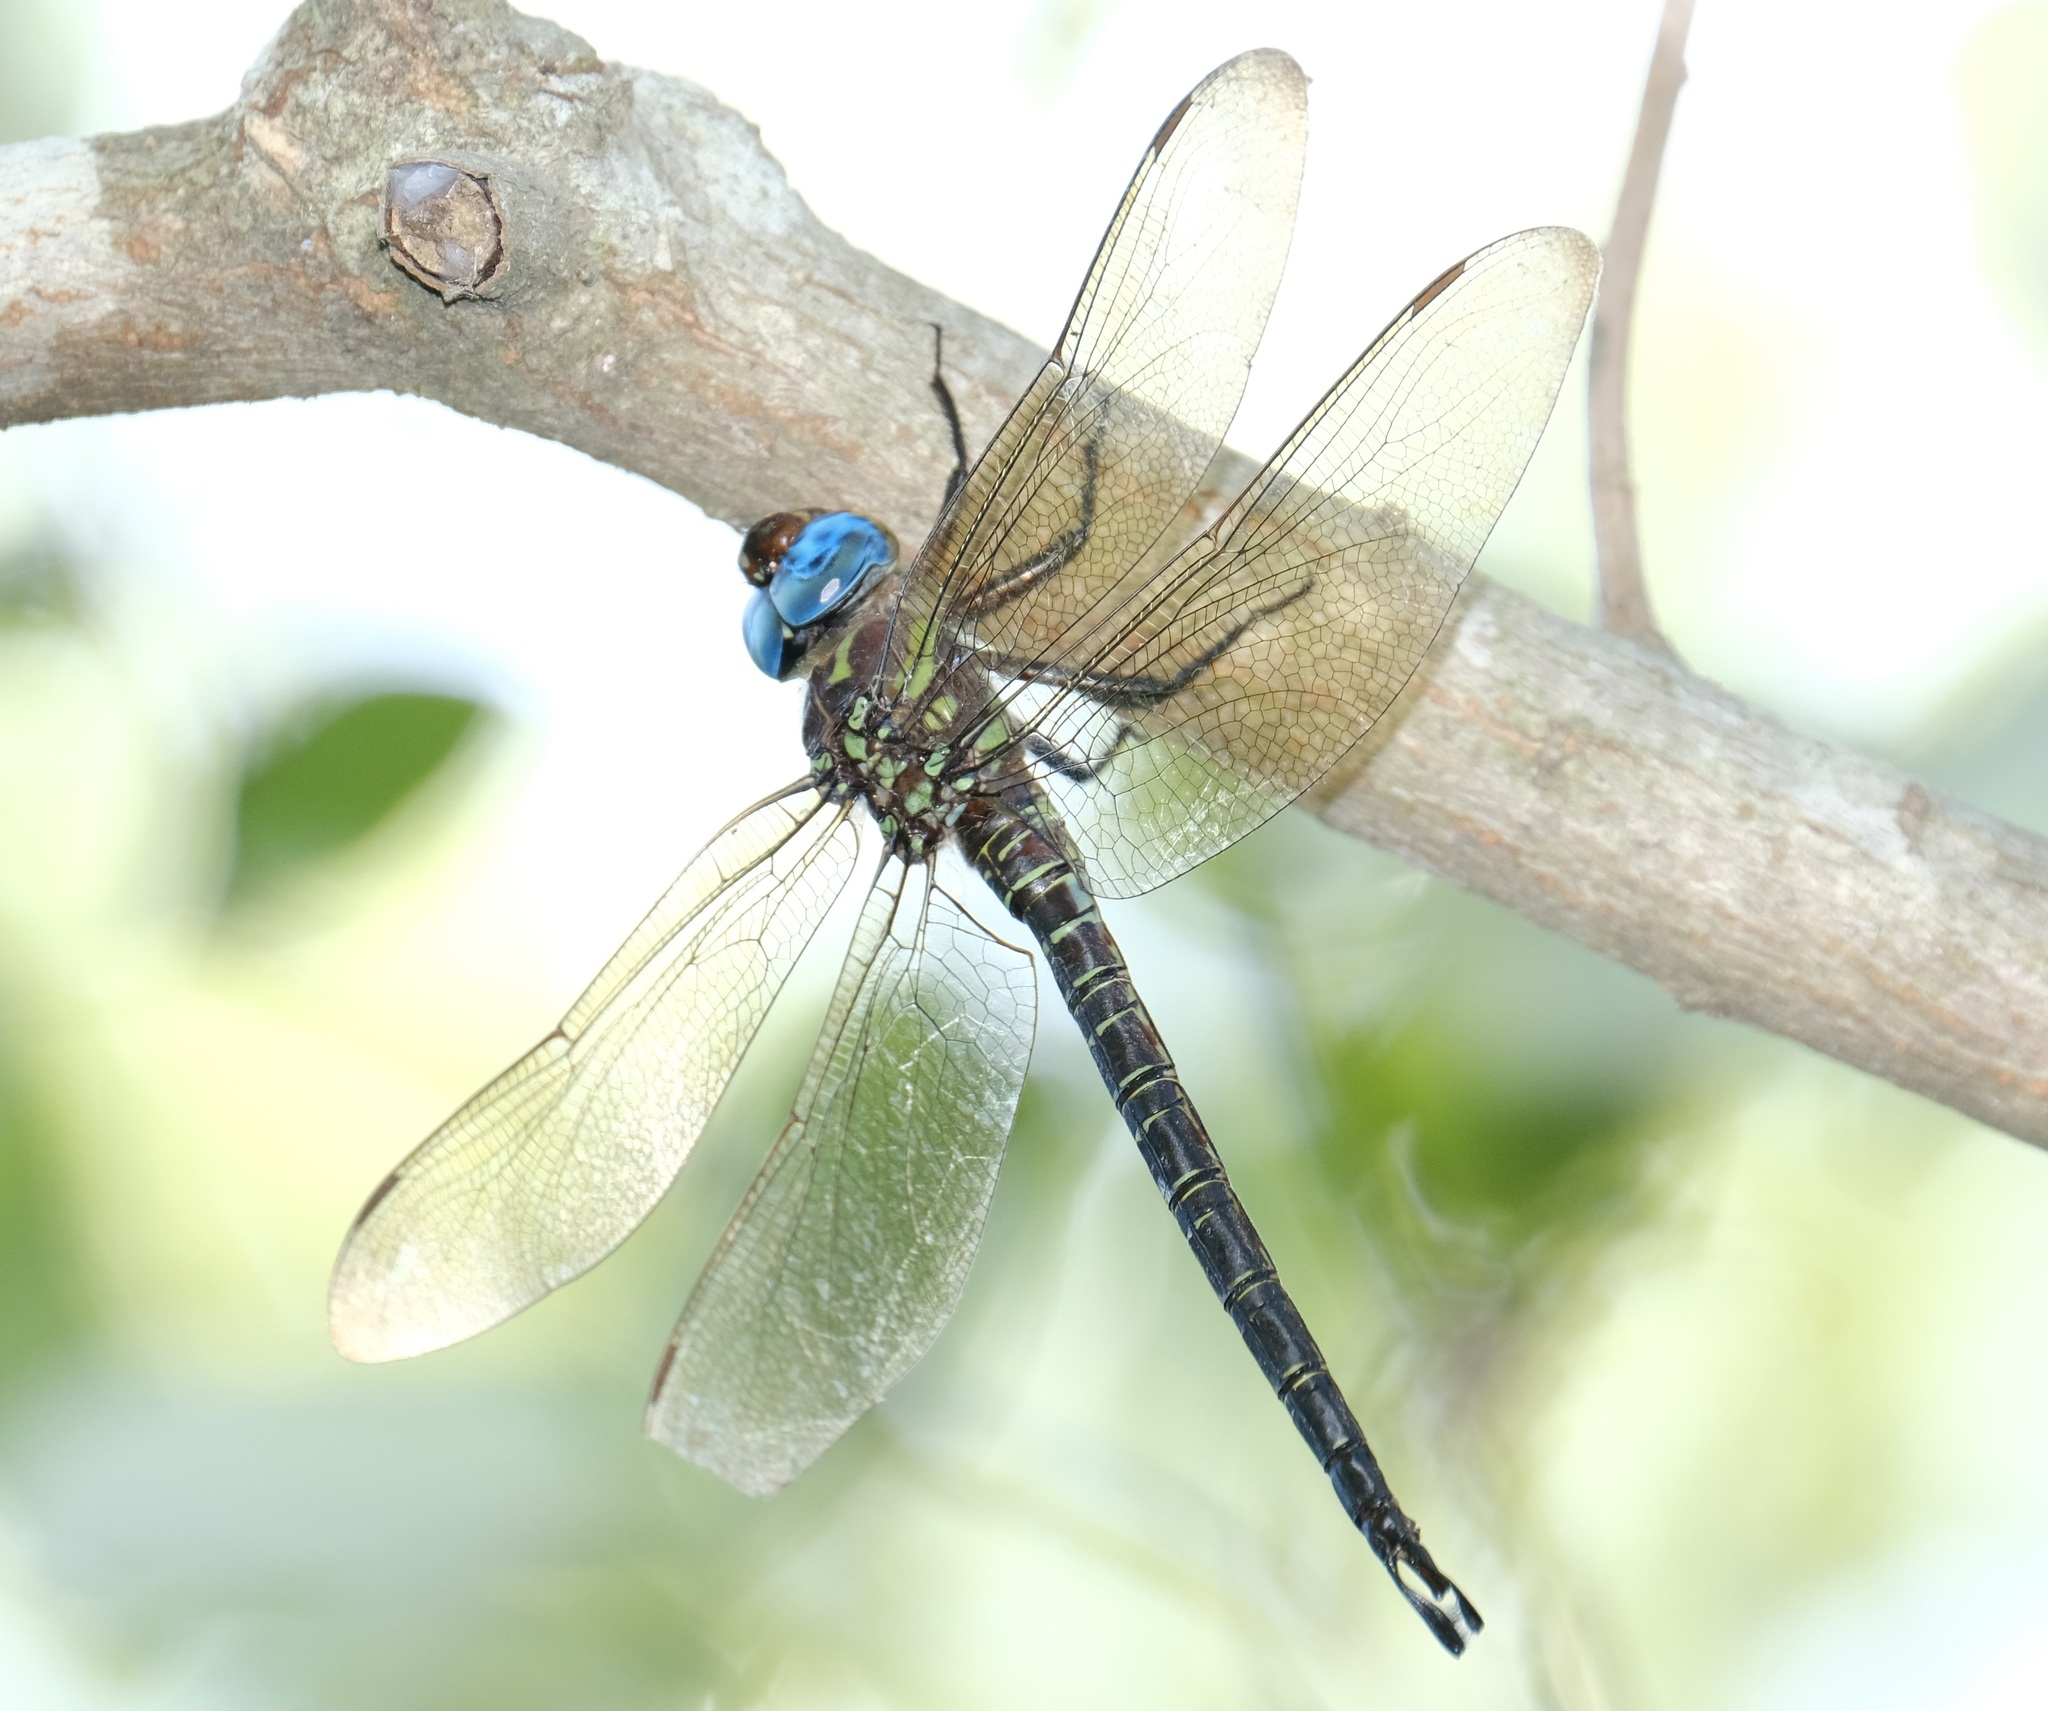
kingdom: Animalia
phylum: Arthropoda
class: Insecta
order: Odonata
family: Aeshnidae
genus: Epiaeschna
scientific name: Epiaeschna heros
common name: Swamp darner
